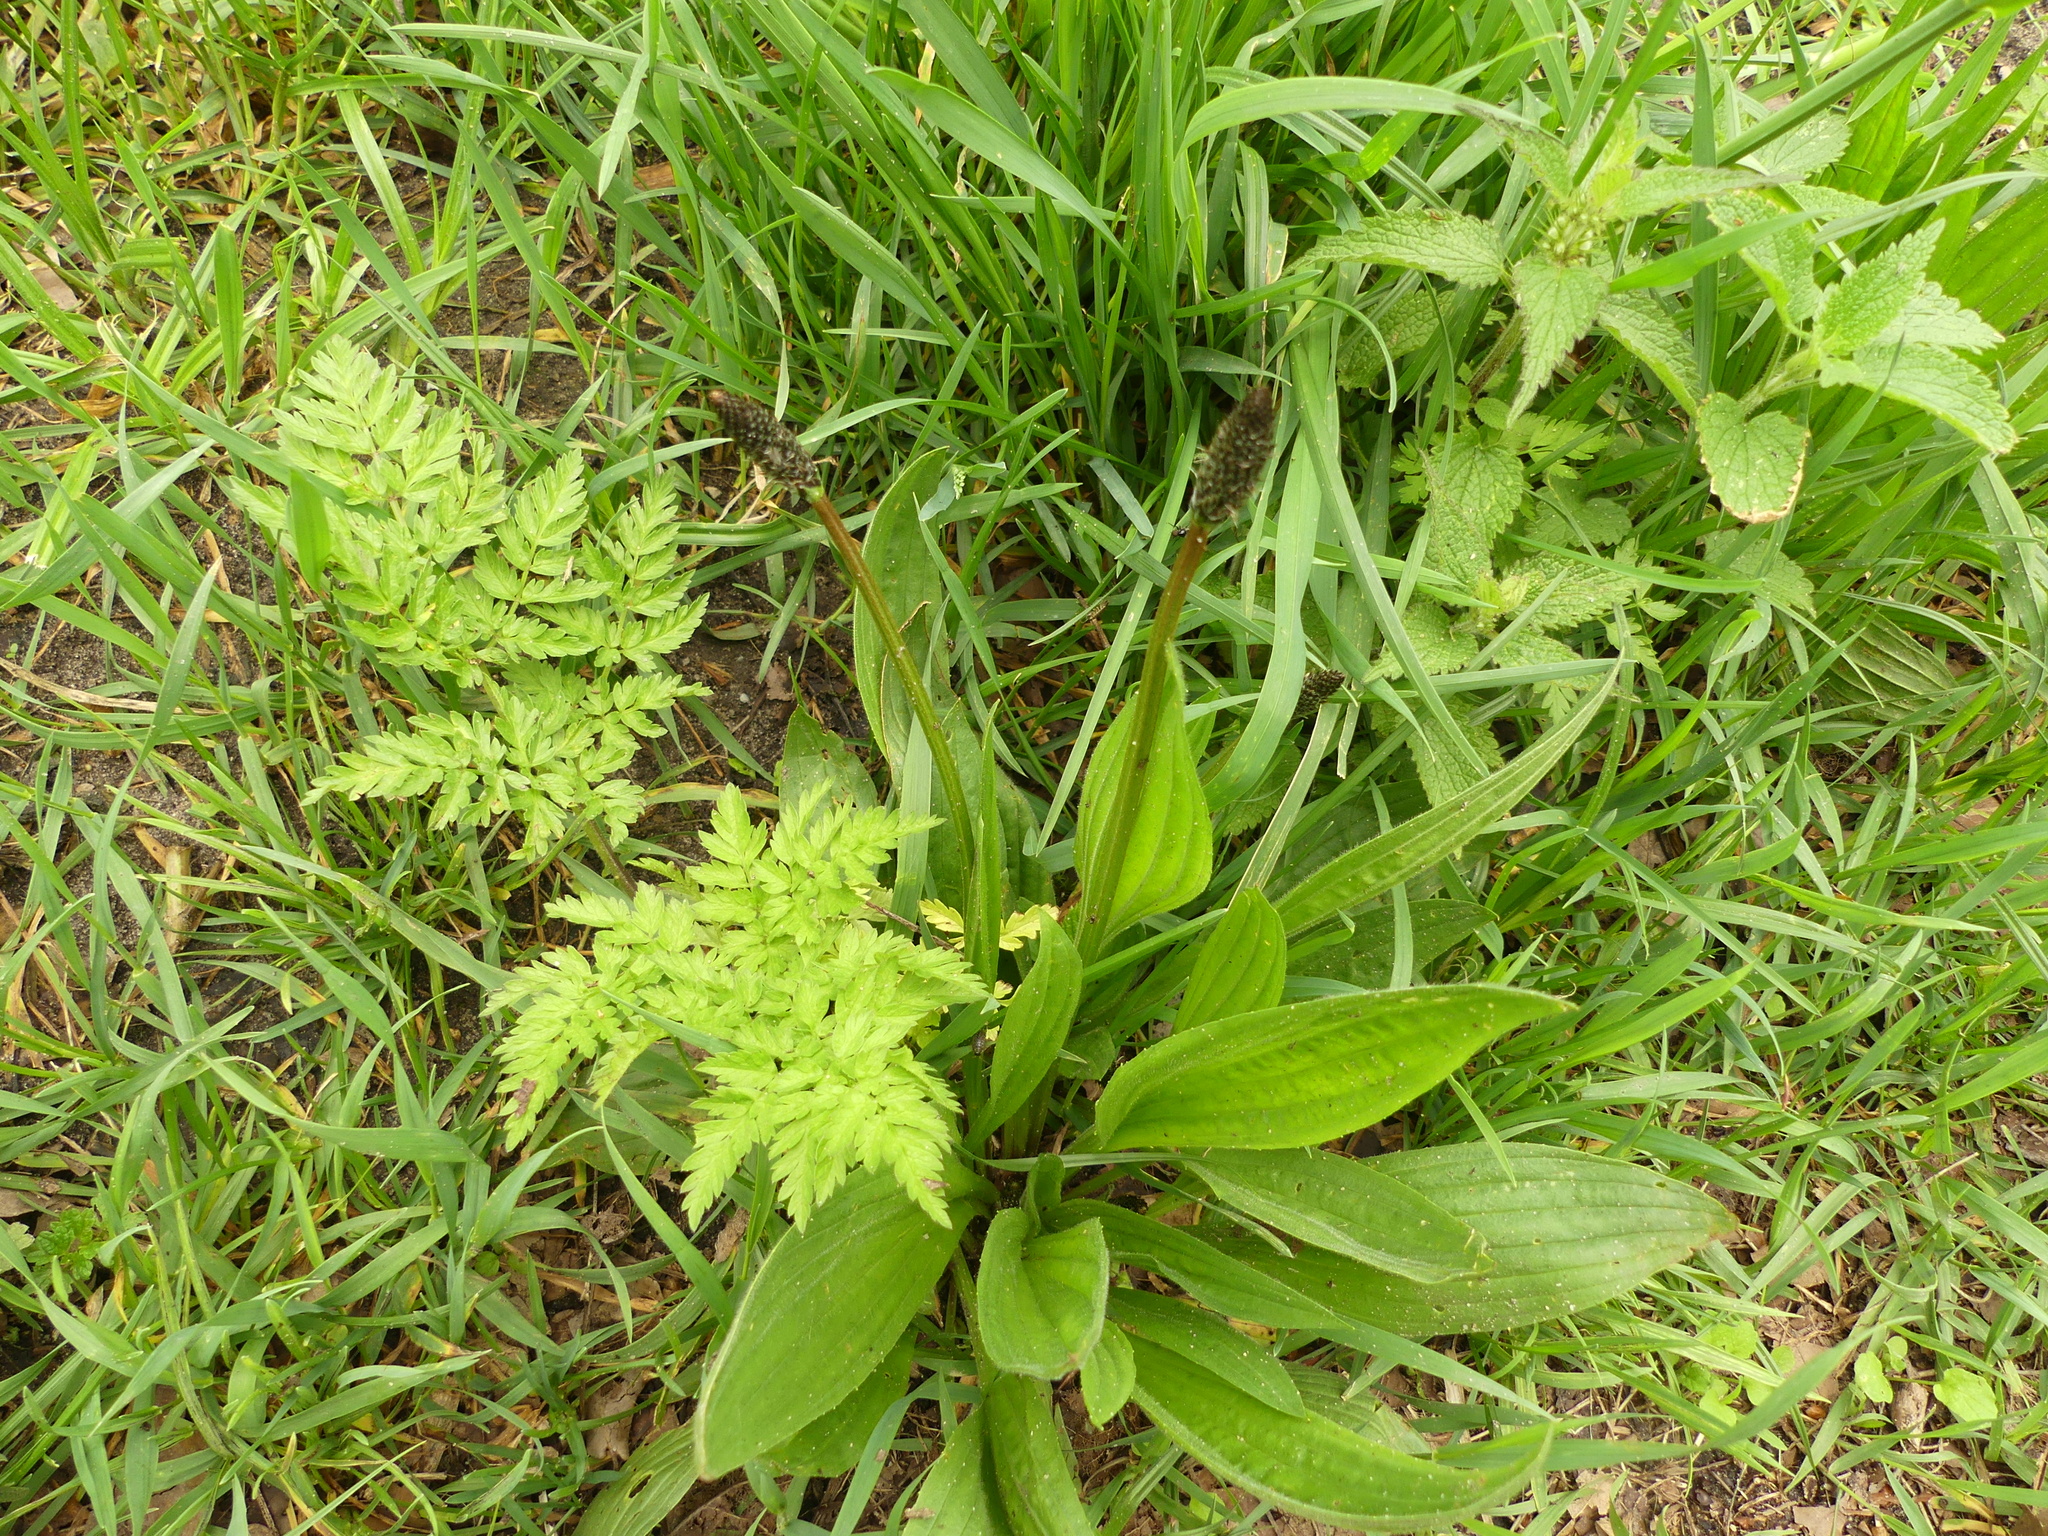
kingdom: Plantae
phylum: Tracheophyta
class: Magnoliopsida
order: Lamiales
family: Plantaginaceae
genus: Plantago
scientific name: Plantago lanceolata
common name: Ribwort plantain
